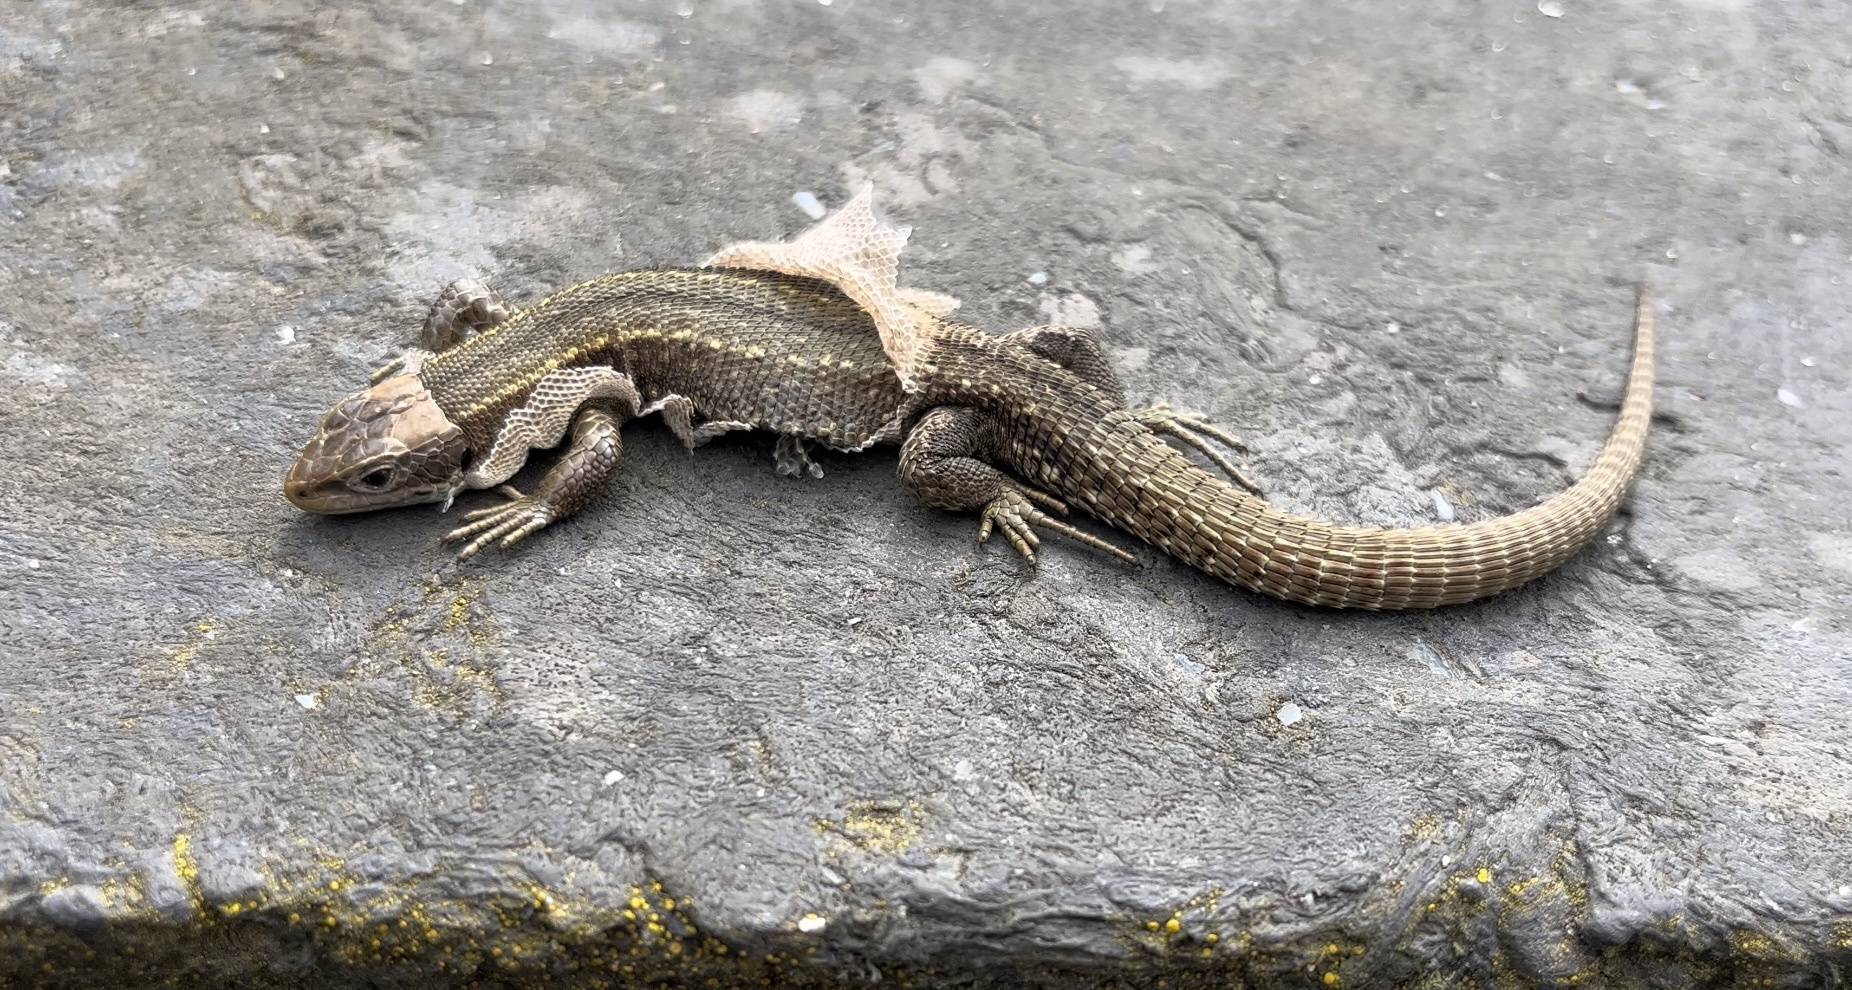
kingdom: Animalia
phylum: Chordata
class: Squamata
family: Lacertidae
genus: Zootoca
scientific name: Zootoca vivipara
